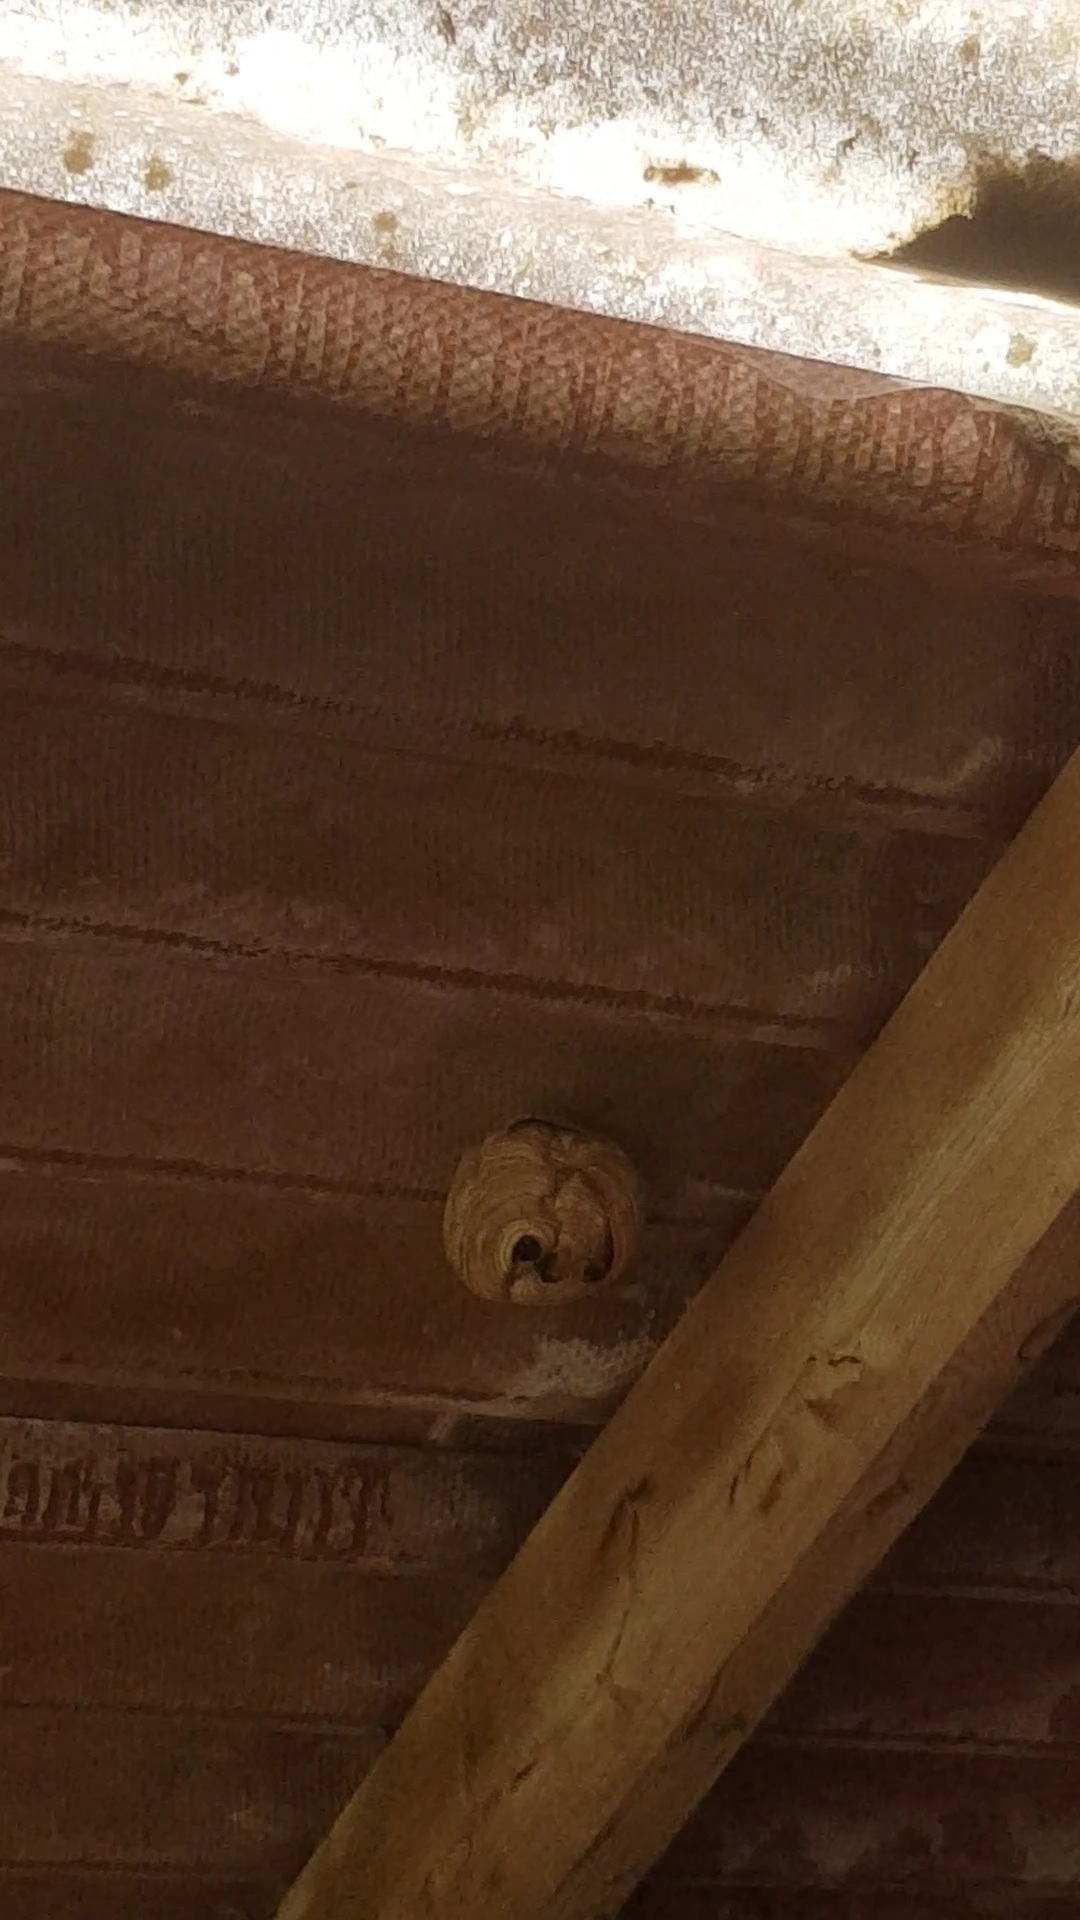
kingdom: Animalia
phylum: Arthropoda
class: Insecta
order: Hymenoptera
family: Vespidae
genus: Vespa
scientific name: Vespa velutina
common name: Asian hornet
